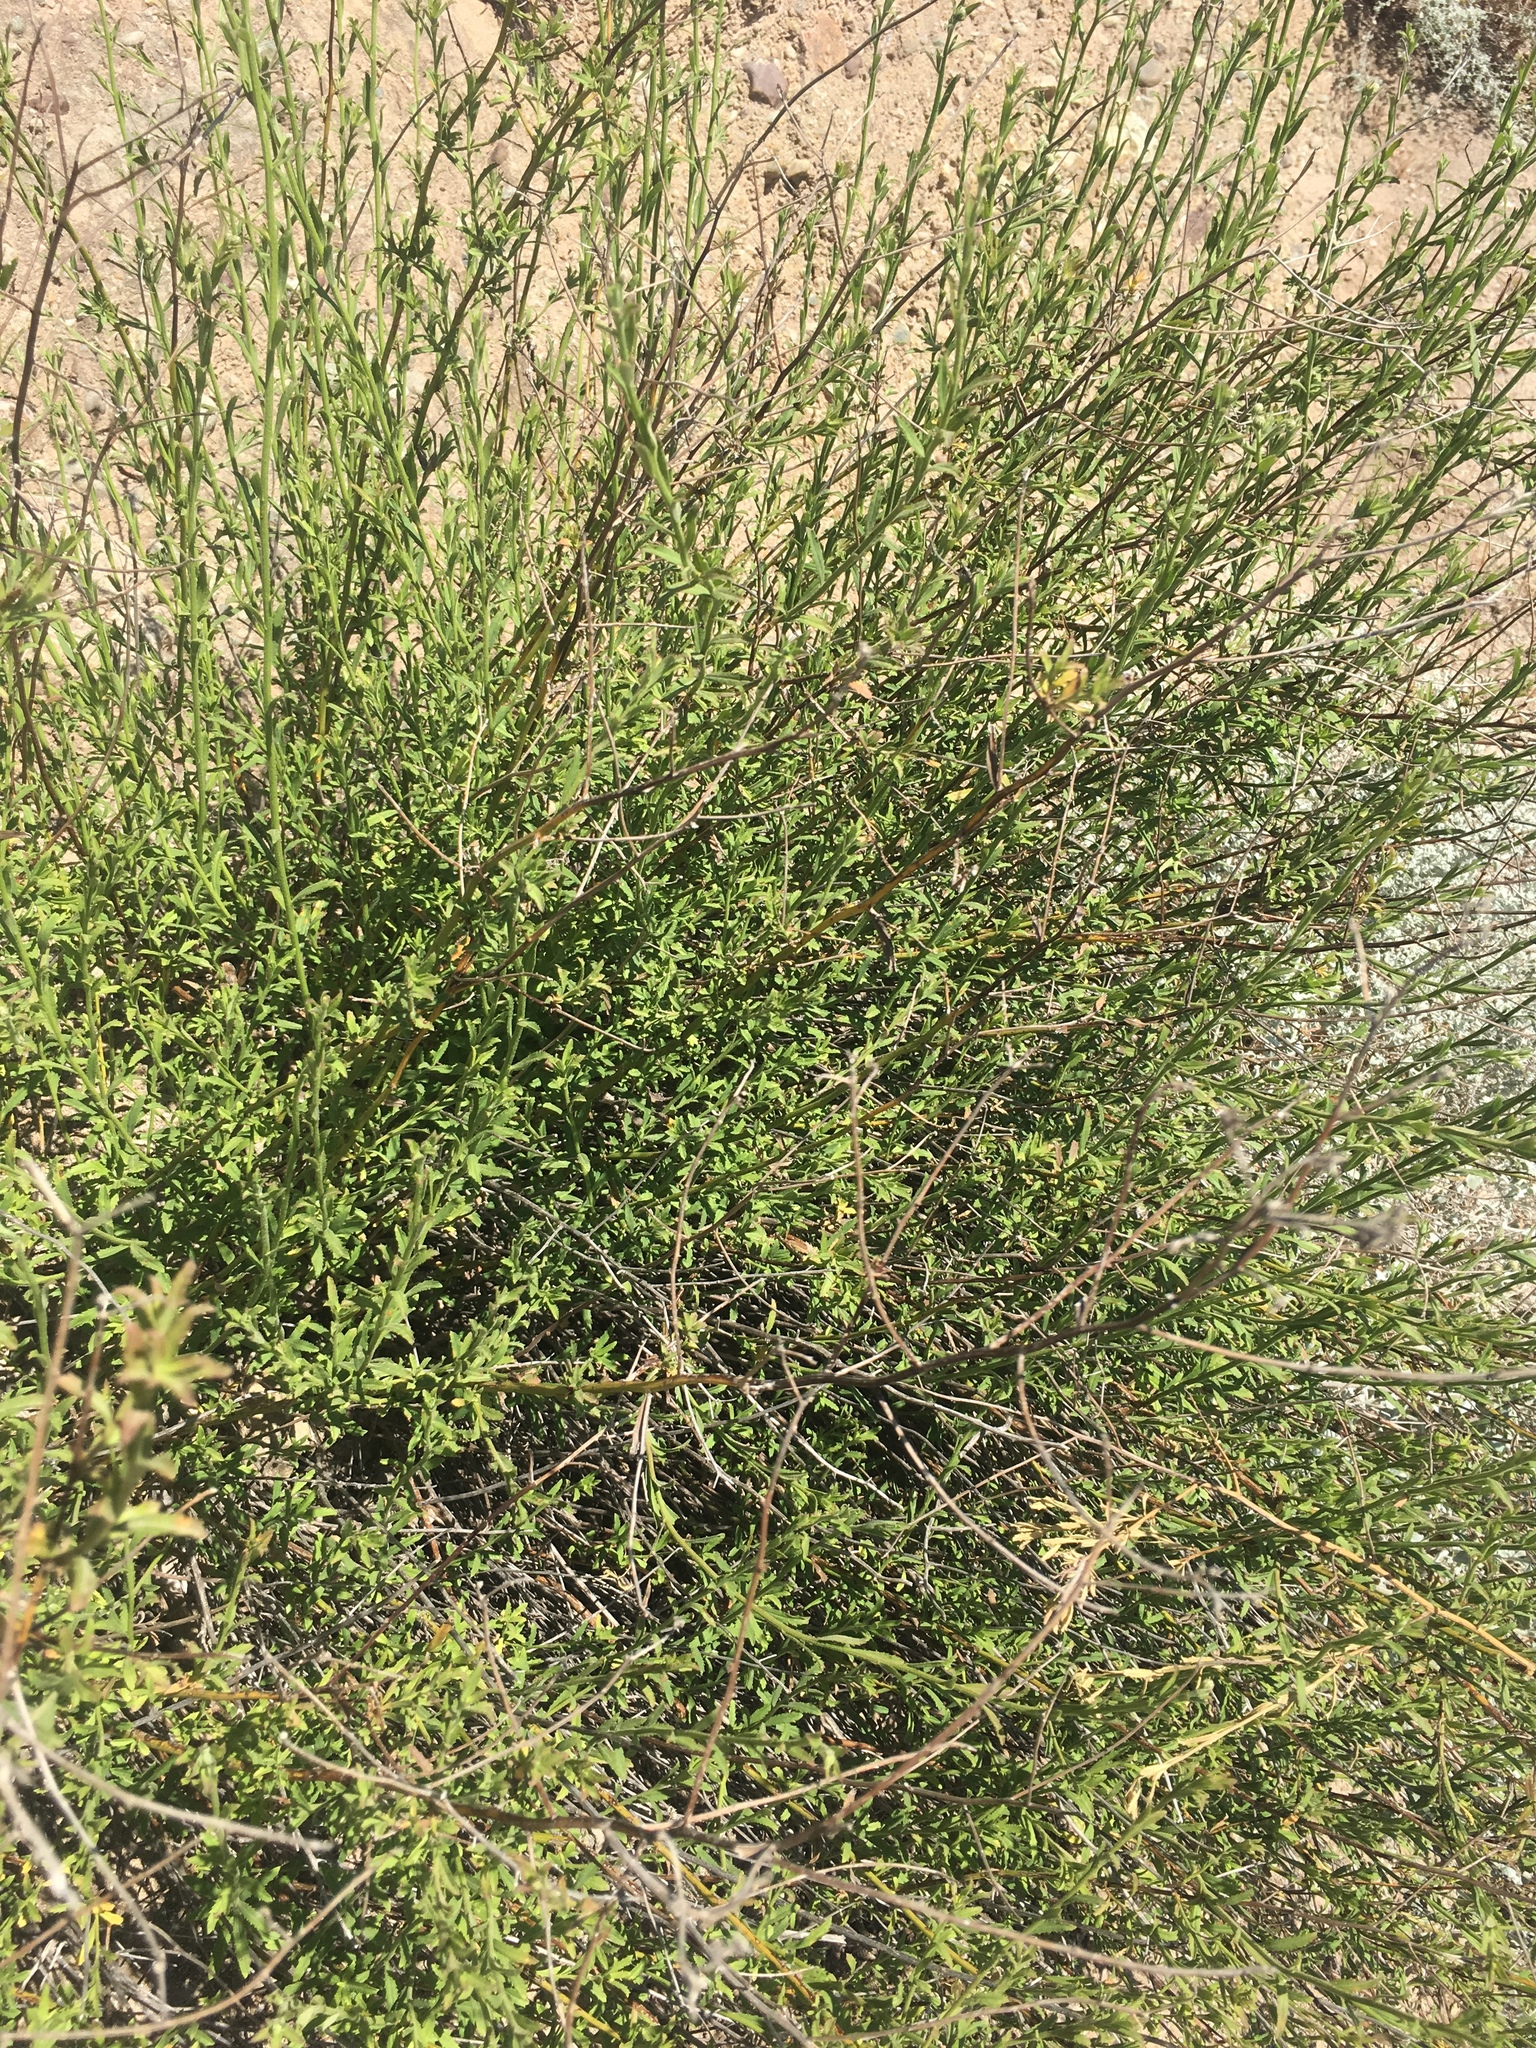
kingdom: Plantae
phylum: Tracheophyta
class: Magnoliopsida
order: Asterales
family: Asteraceae
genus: Baccharis
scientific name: Baccharis plummerae
